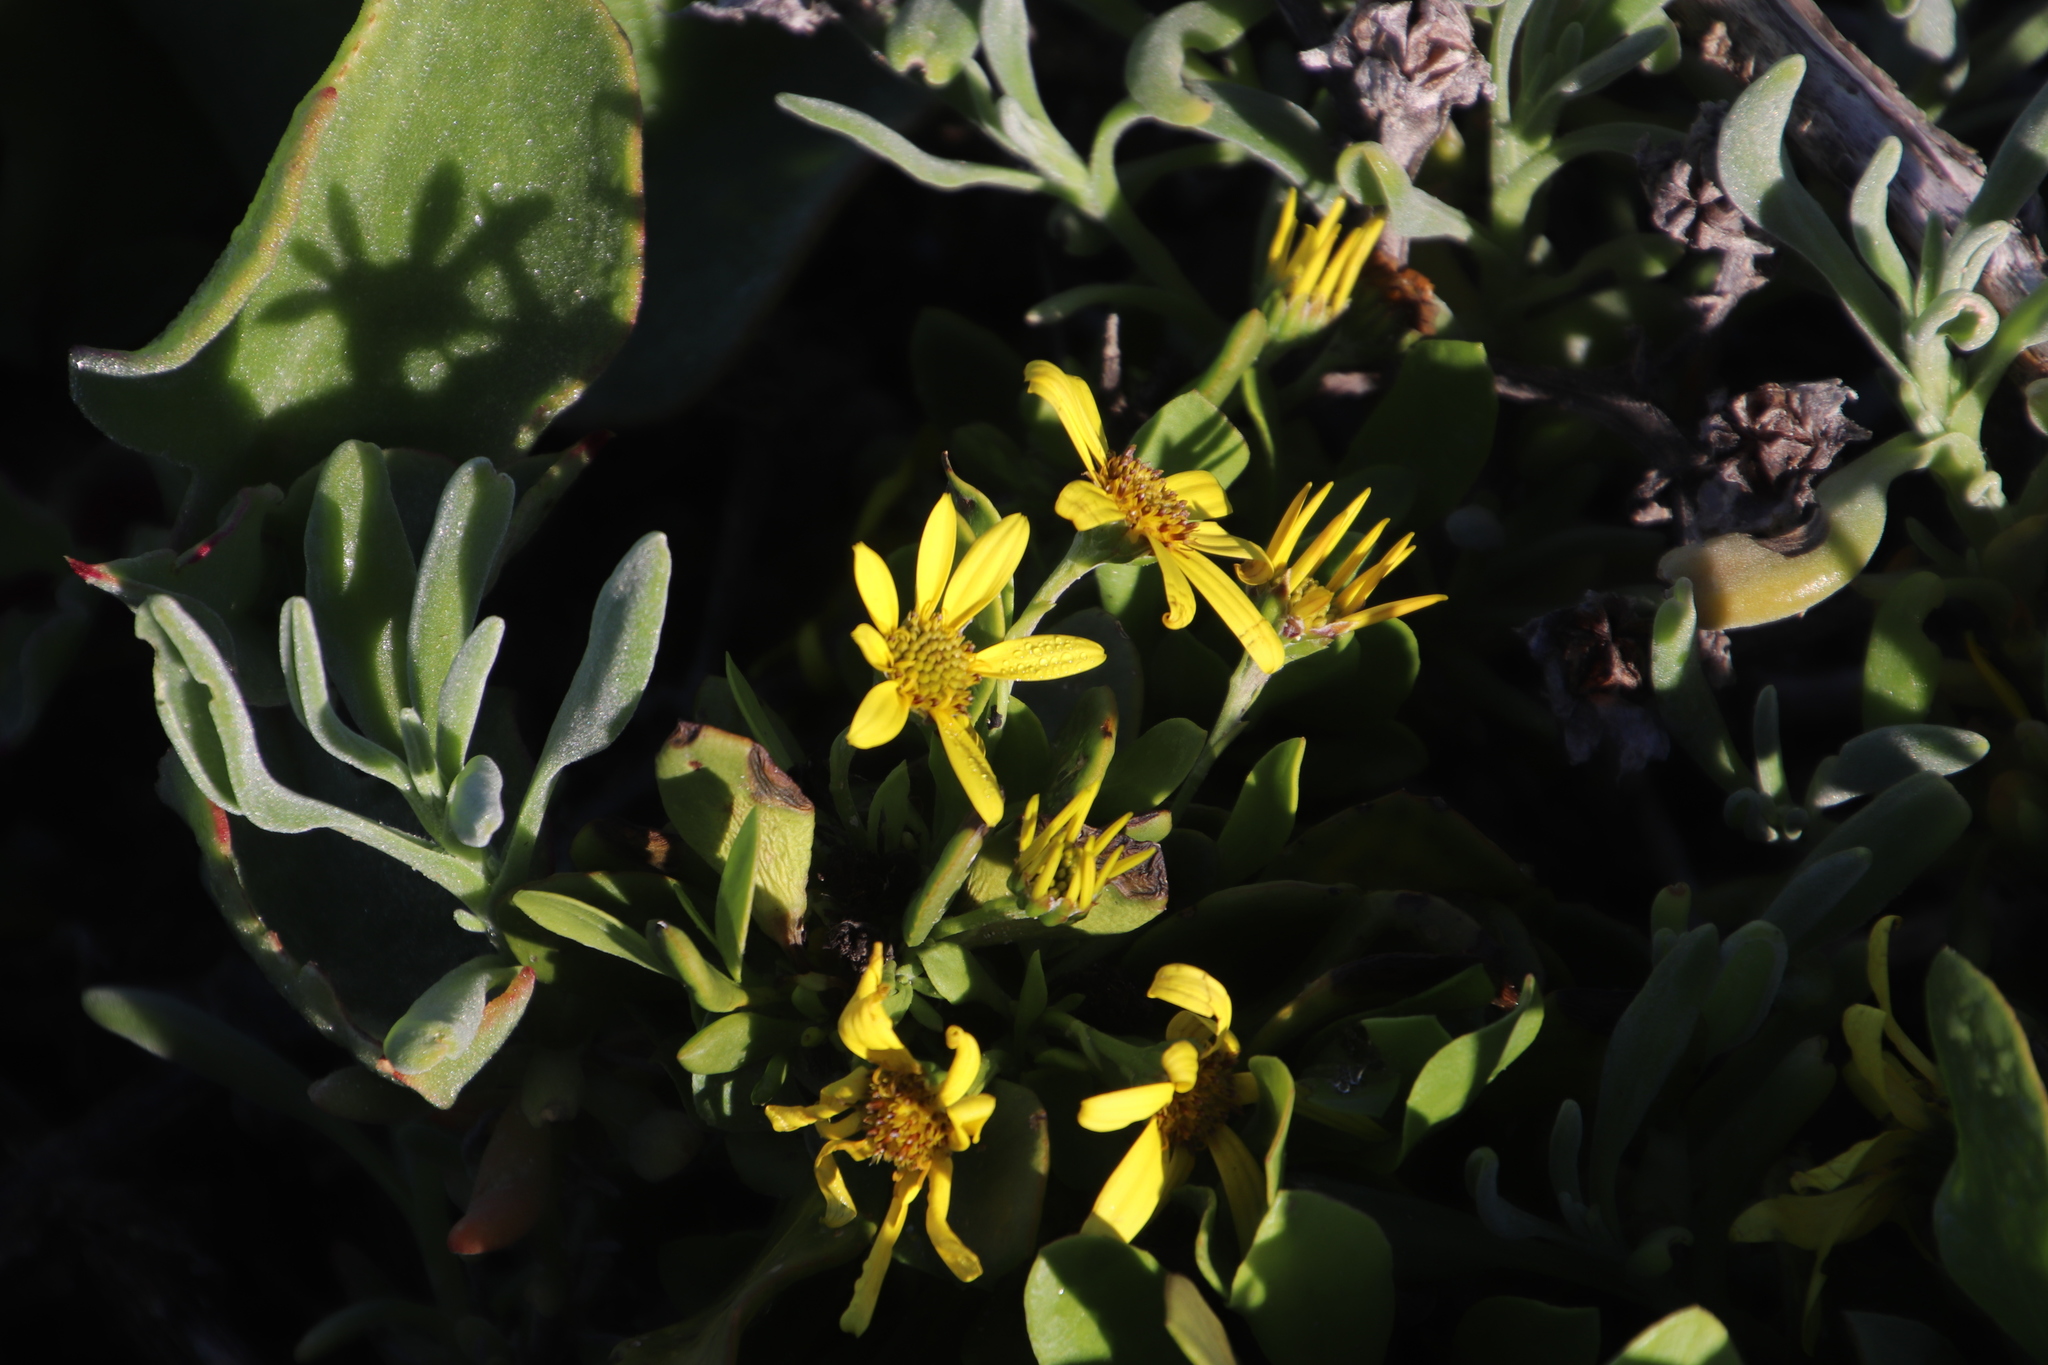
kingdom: Plantae
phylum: Tracheophyta
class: Magnoliopsida
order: Asterales
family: Asteraceae
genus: Osteospermum
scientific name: Osteospermum moniliferum
